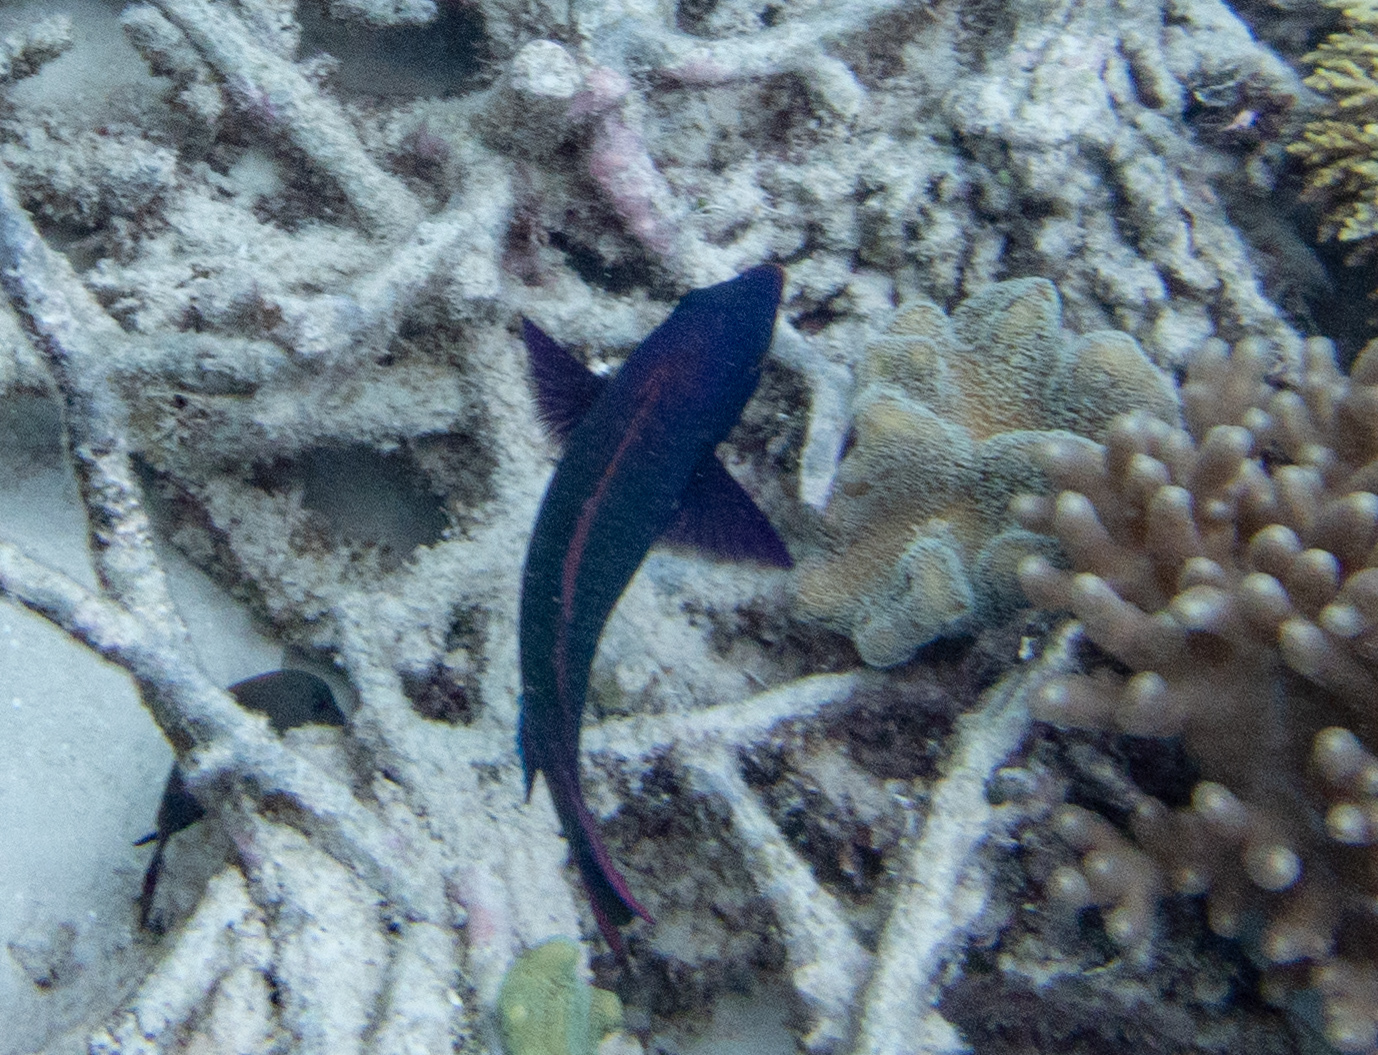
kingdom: Animalia
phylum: Chordata
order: Perciformes
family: Scaridae
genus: Scarus
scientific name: Scarus niger
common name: Dusky parrotfish
